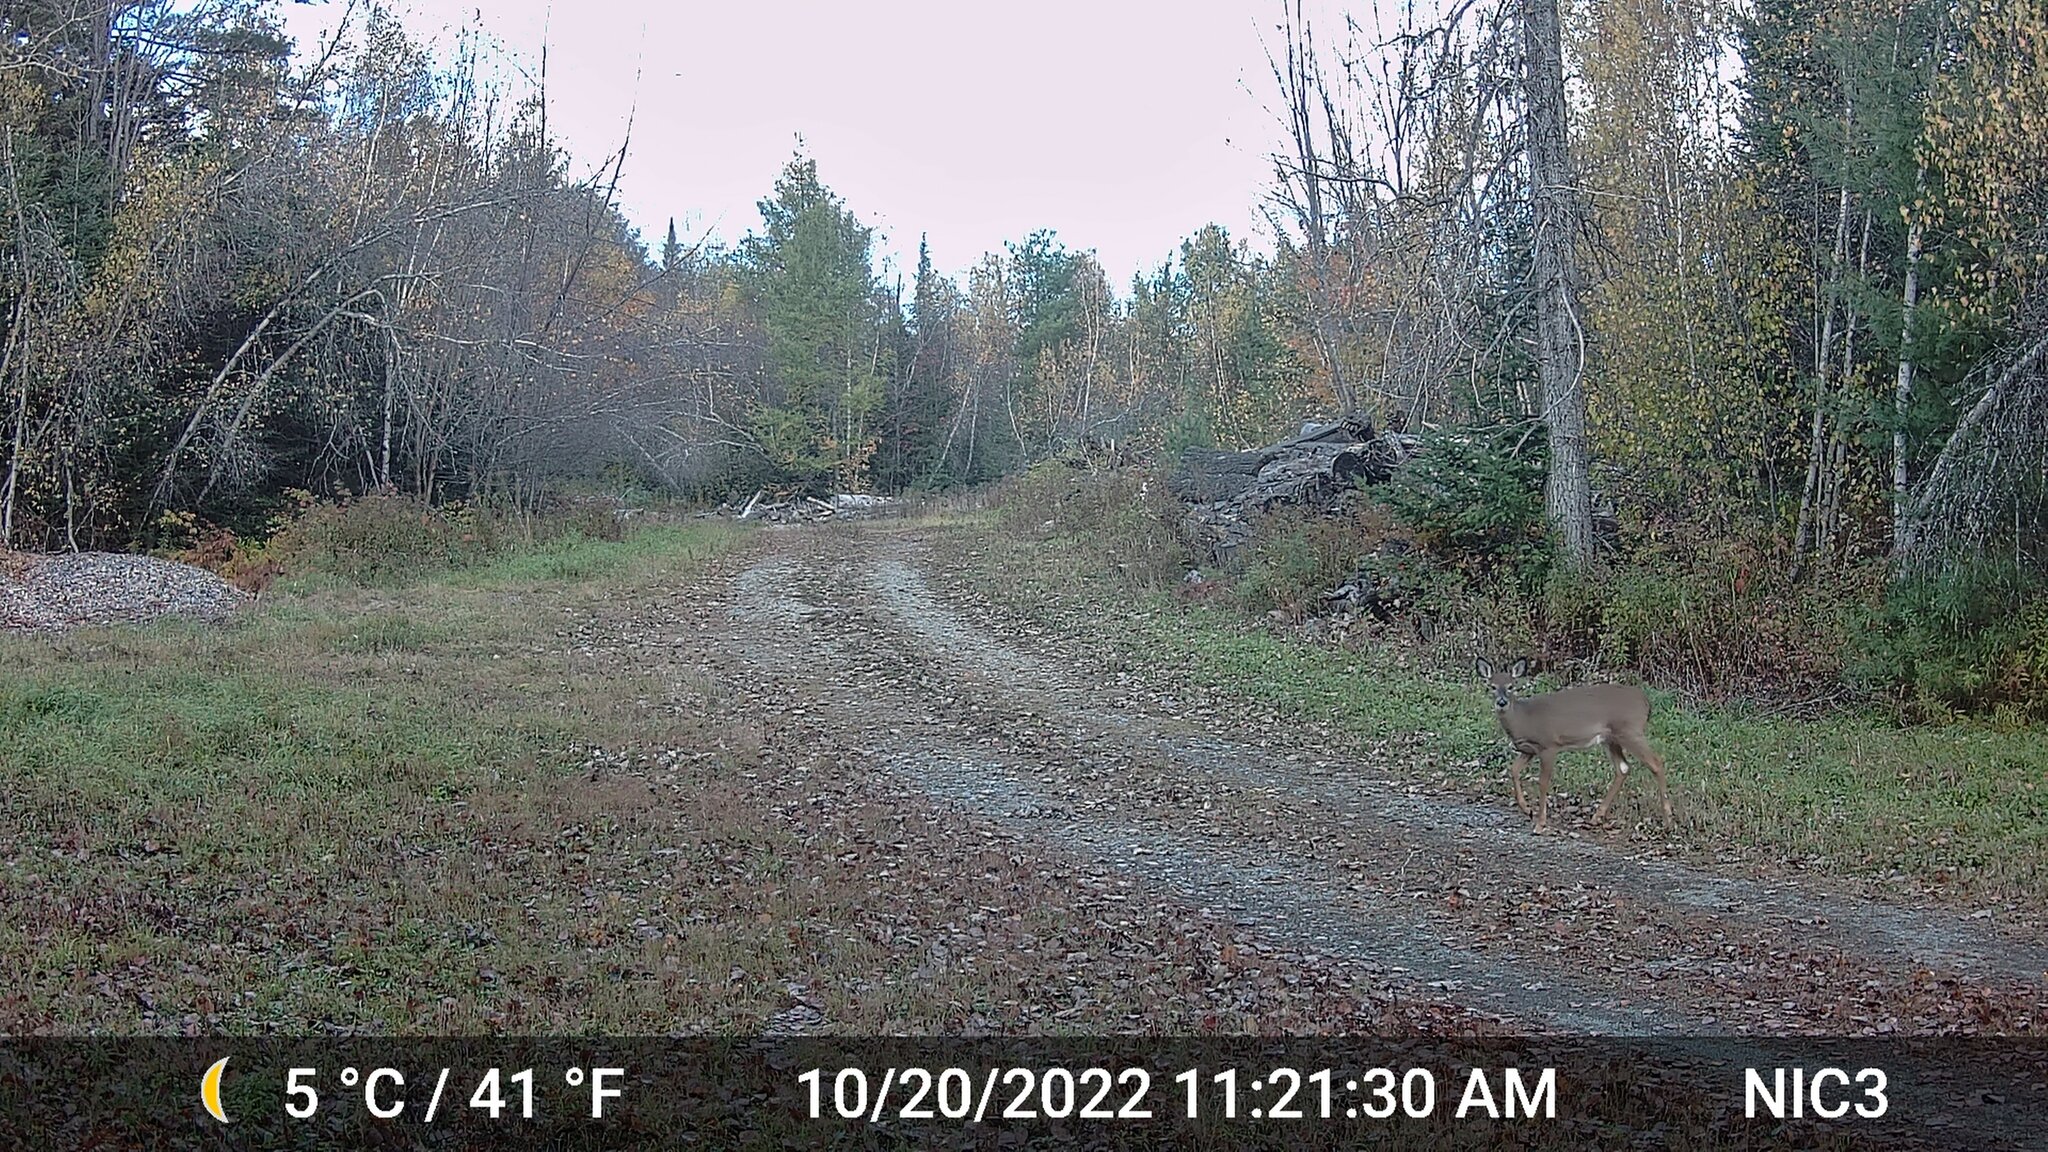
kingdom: Animalia
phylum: Chordata
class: Mammalia
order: Artiodactyla
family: Cervidae
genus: Odocoileus
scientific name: Odocoileus virginianus
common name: White-tailed deer
